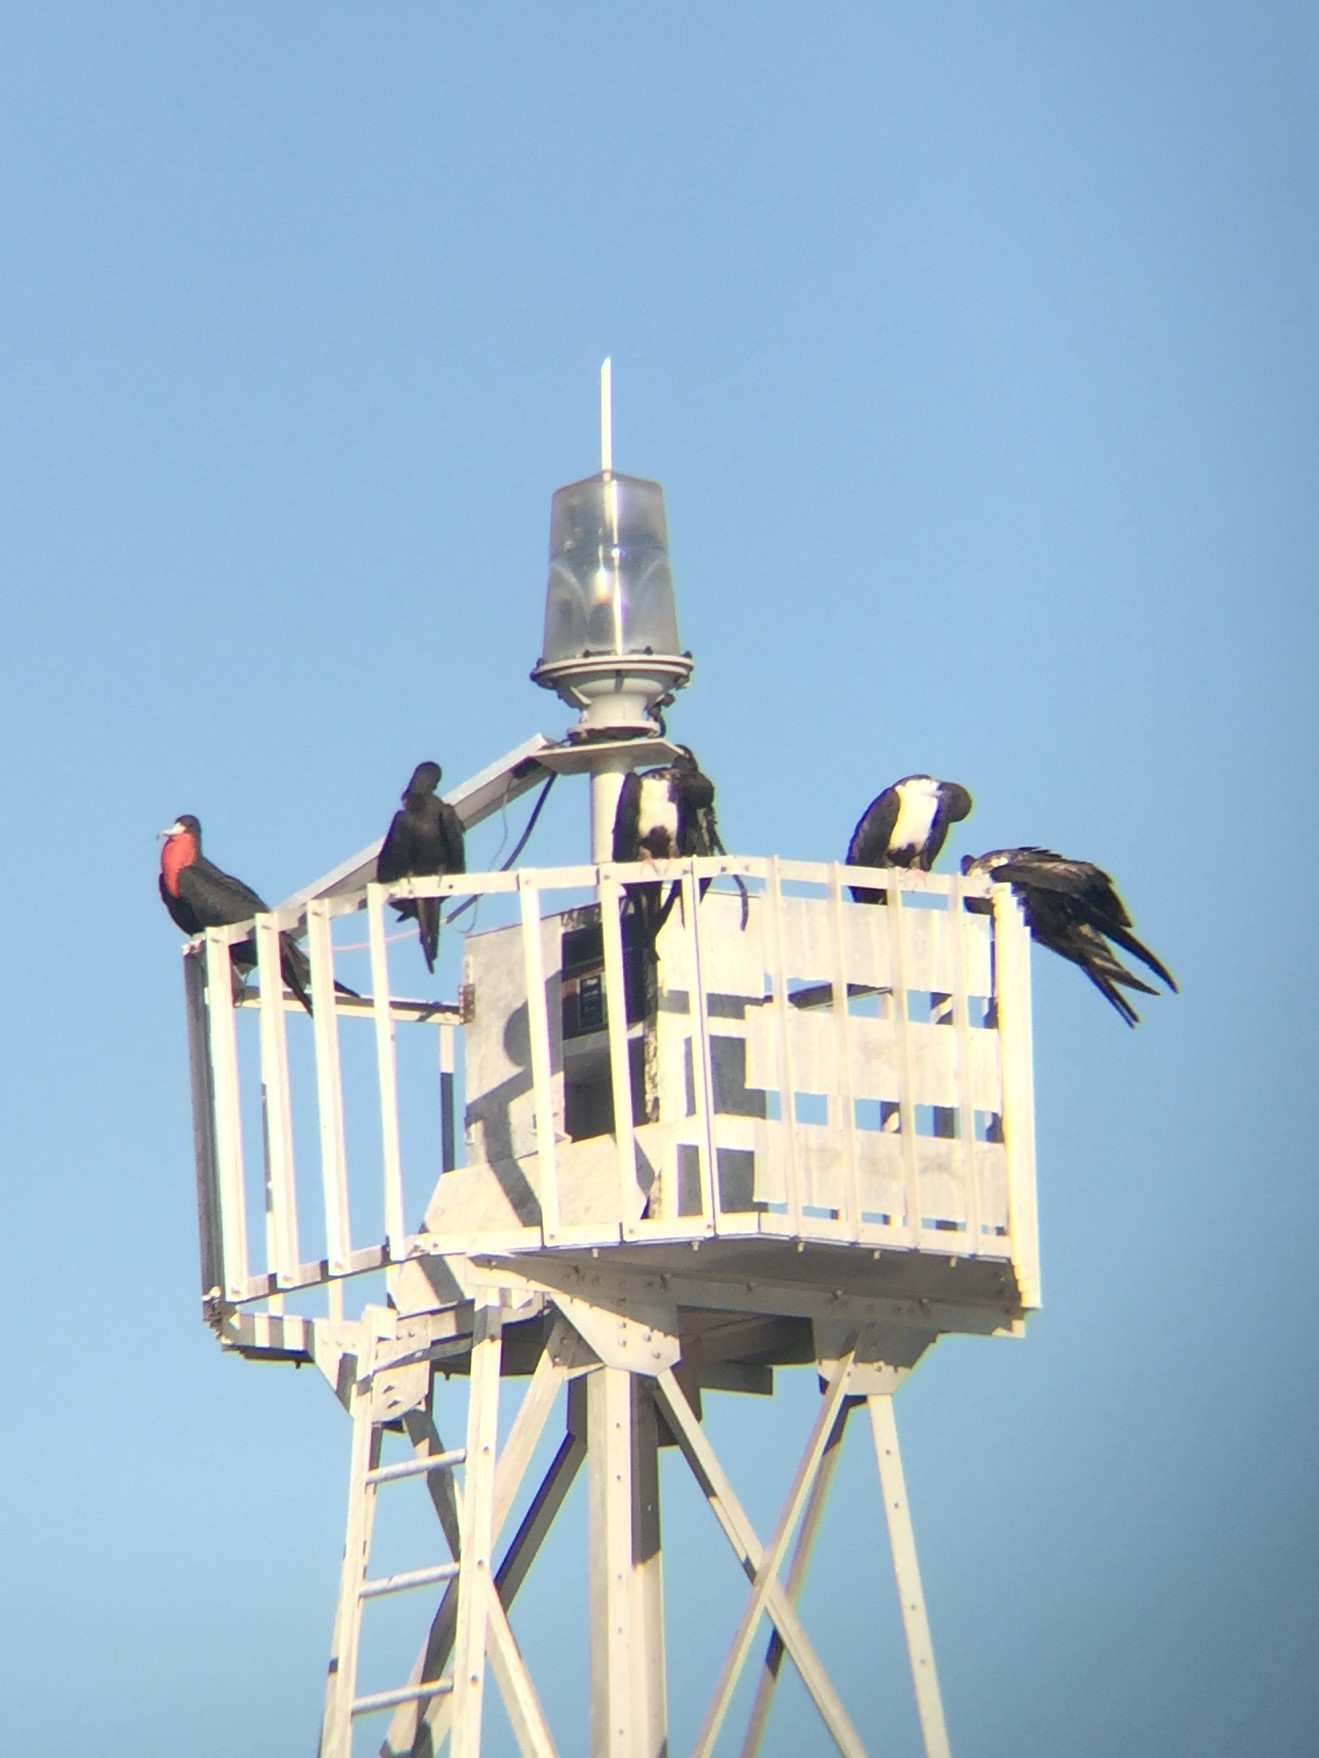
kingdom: Animalia
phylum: Chordata
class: Aves
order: Suliformes
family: Fregatidae
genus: Fregata
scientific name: Fregata magnificens
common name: Magnificent frigatebird
